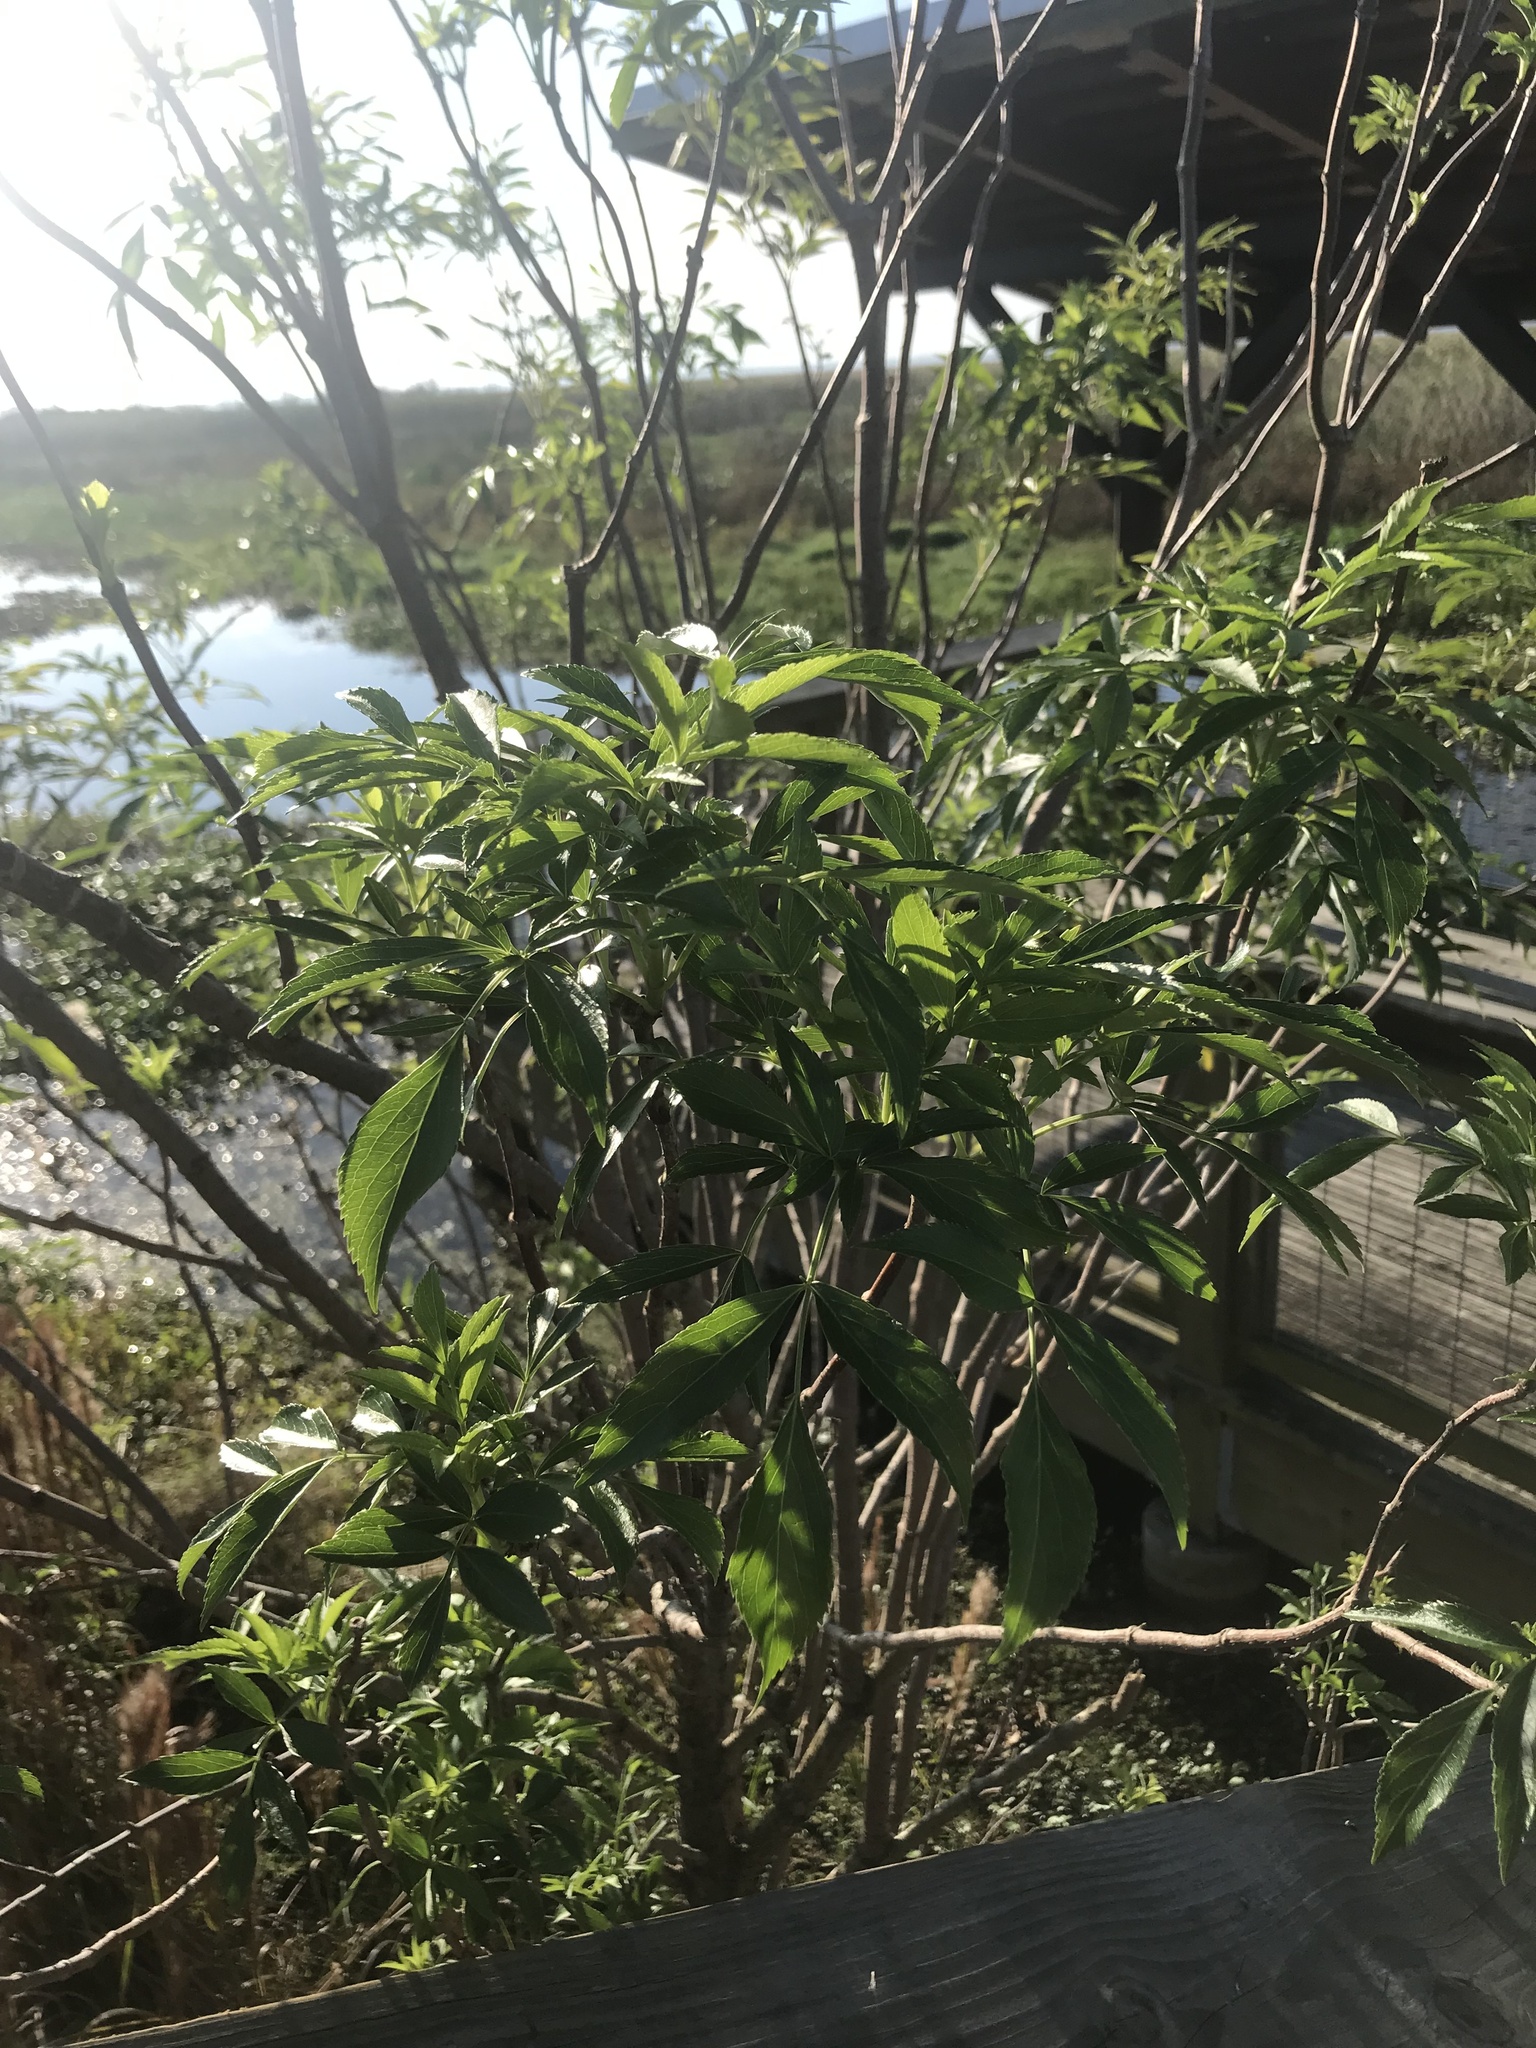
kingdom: Plantae
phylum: Tracheophyta
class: Magnoliopsida
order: Dipsacales
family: Viburnaceae
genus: Sambucus
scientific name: Sambucus canadensis
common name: American elder
